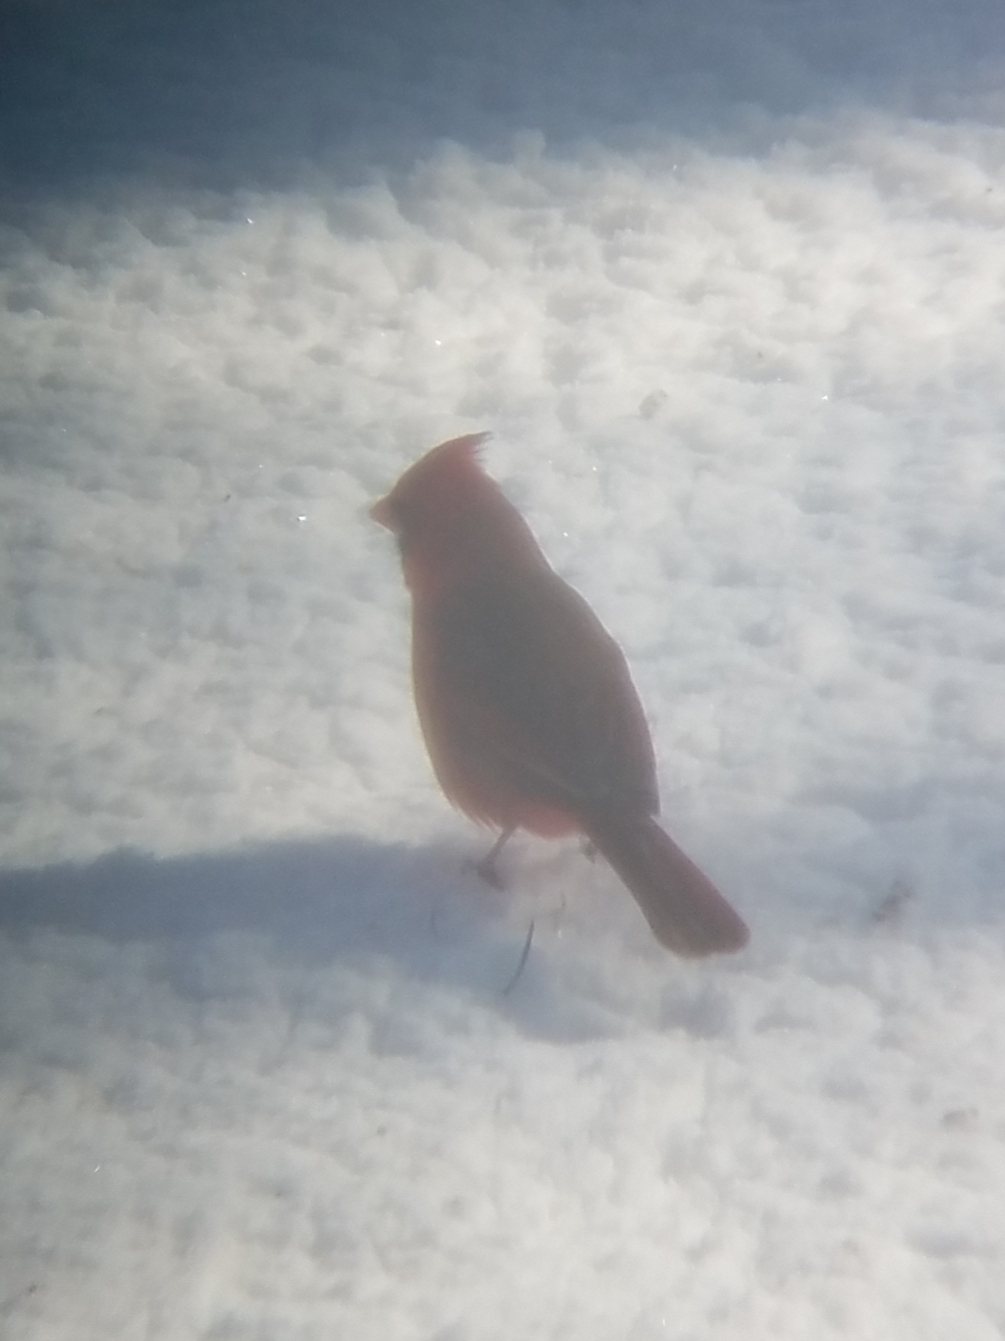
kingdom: Animalia
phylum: Chordata
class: Aves
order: Passeriformes
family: Cardinalidae
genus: Cardinalis
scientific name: Cardinalis cardinalis
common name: Northern cardinal
